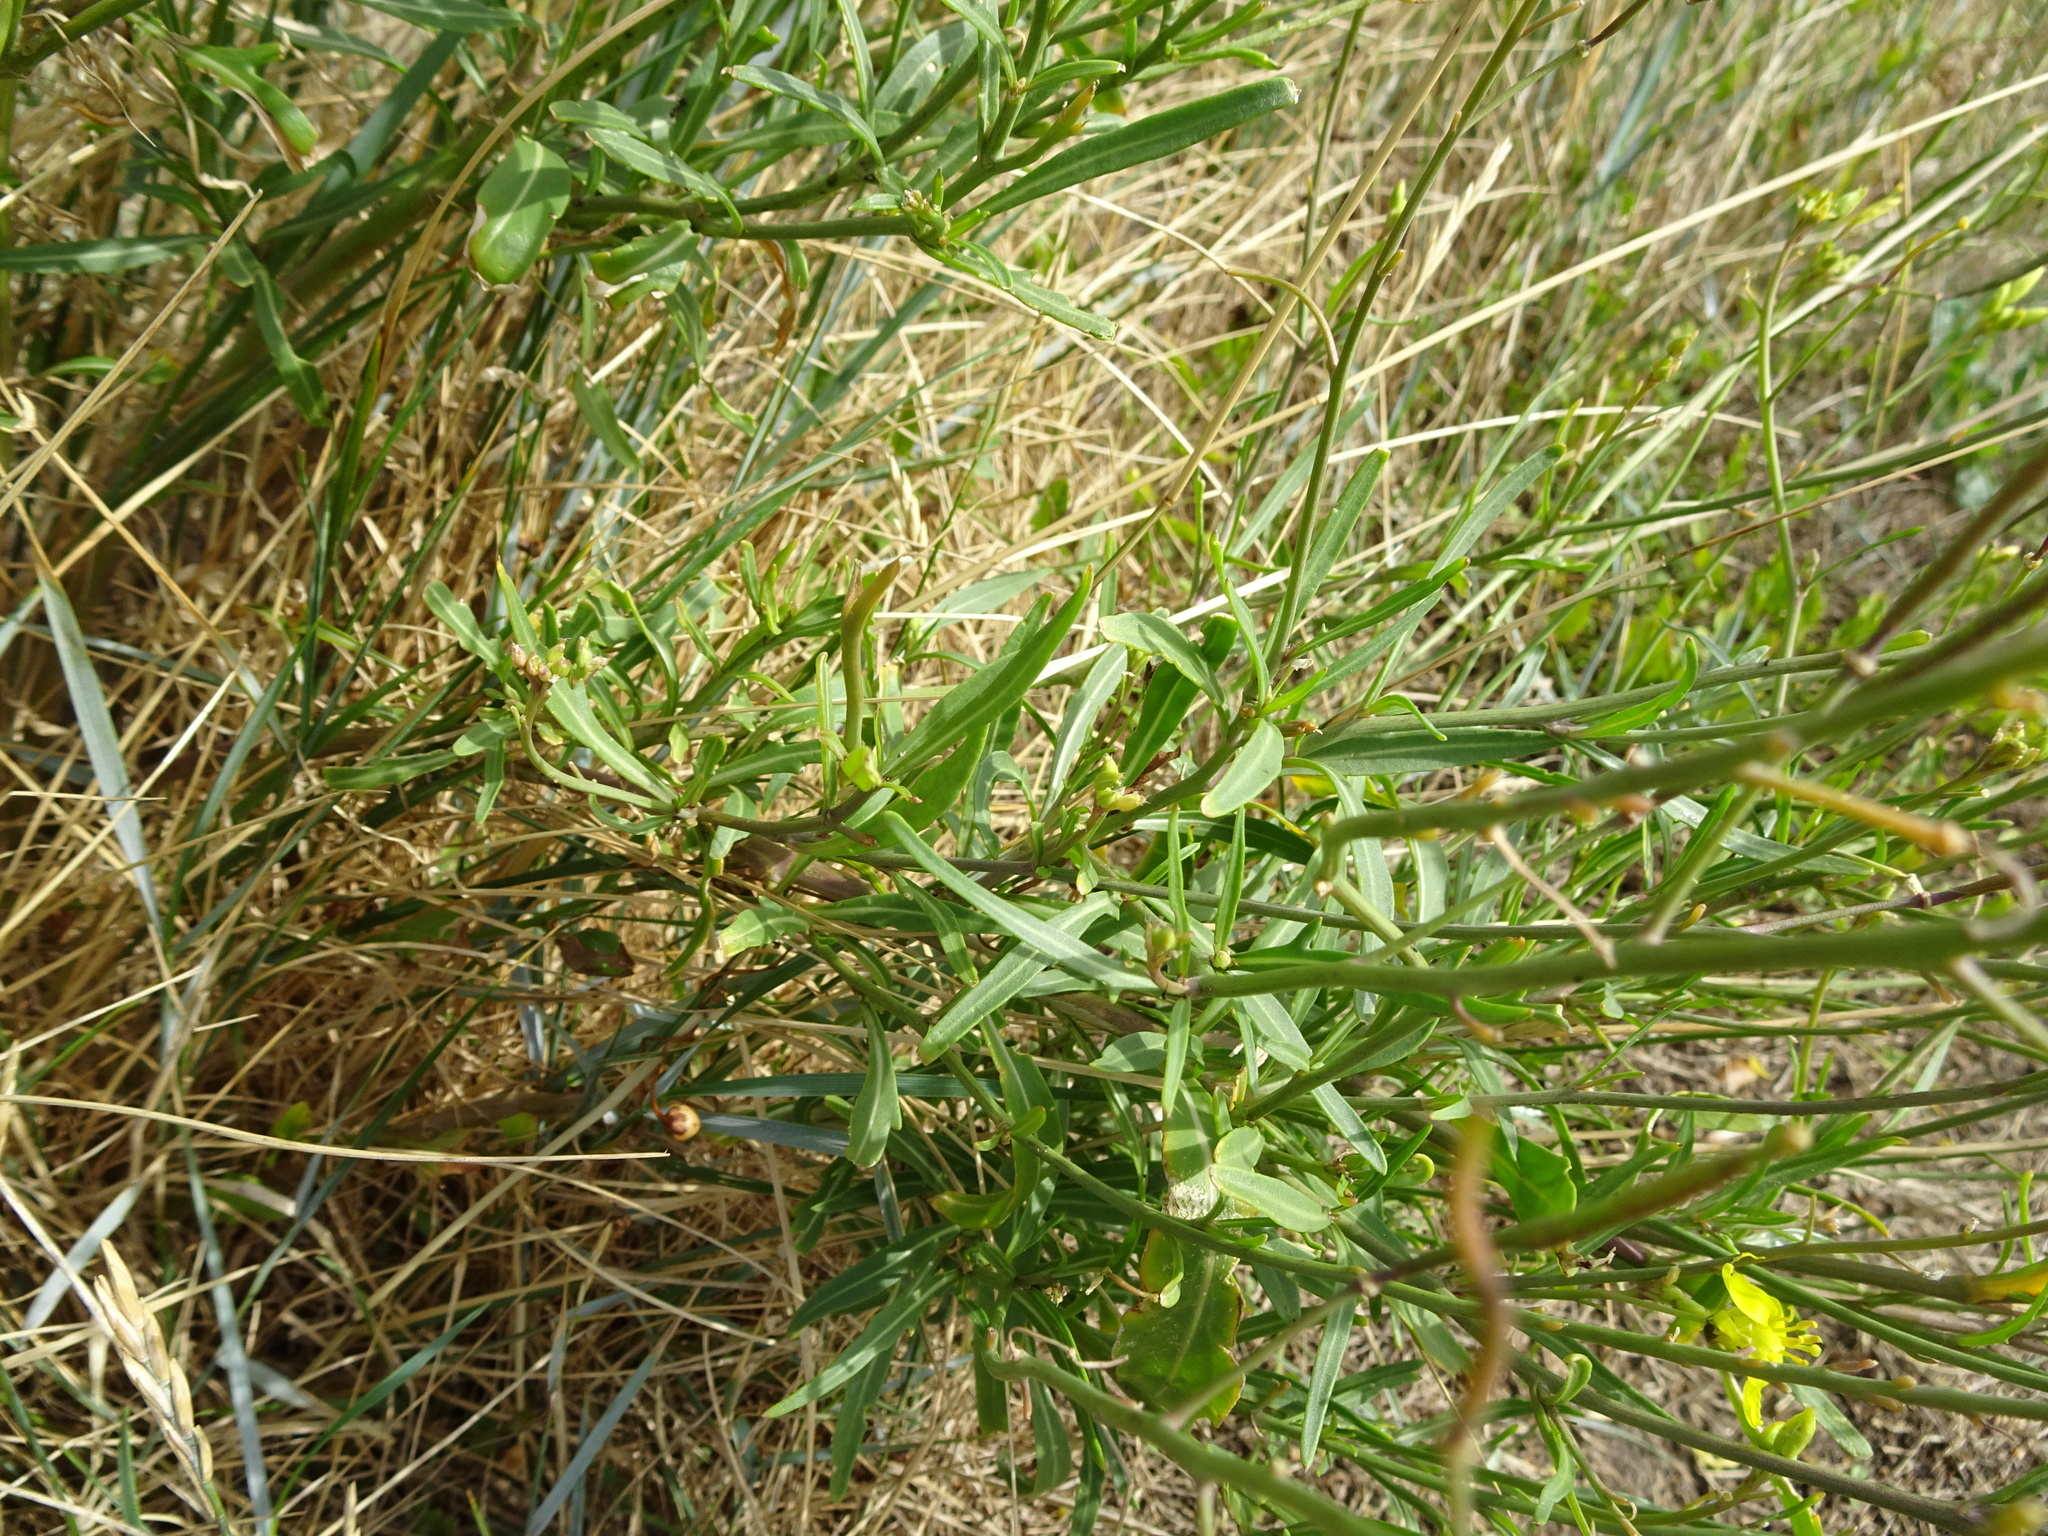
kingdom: Plantae
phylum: Tracheophyta
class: Magnoliopsida
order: Brassicales
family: Brassicaceae
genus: Diplotaxis
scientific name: Diplotaxis tenuifolia
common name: Perennial wall-rocket
